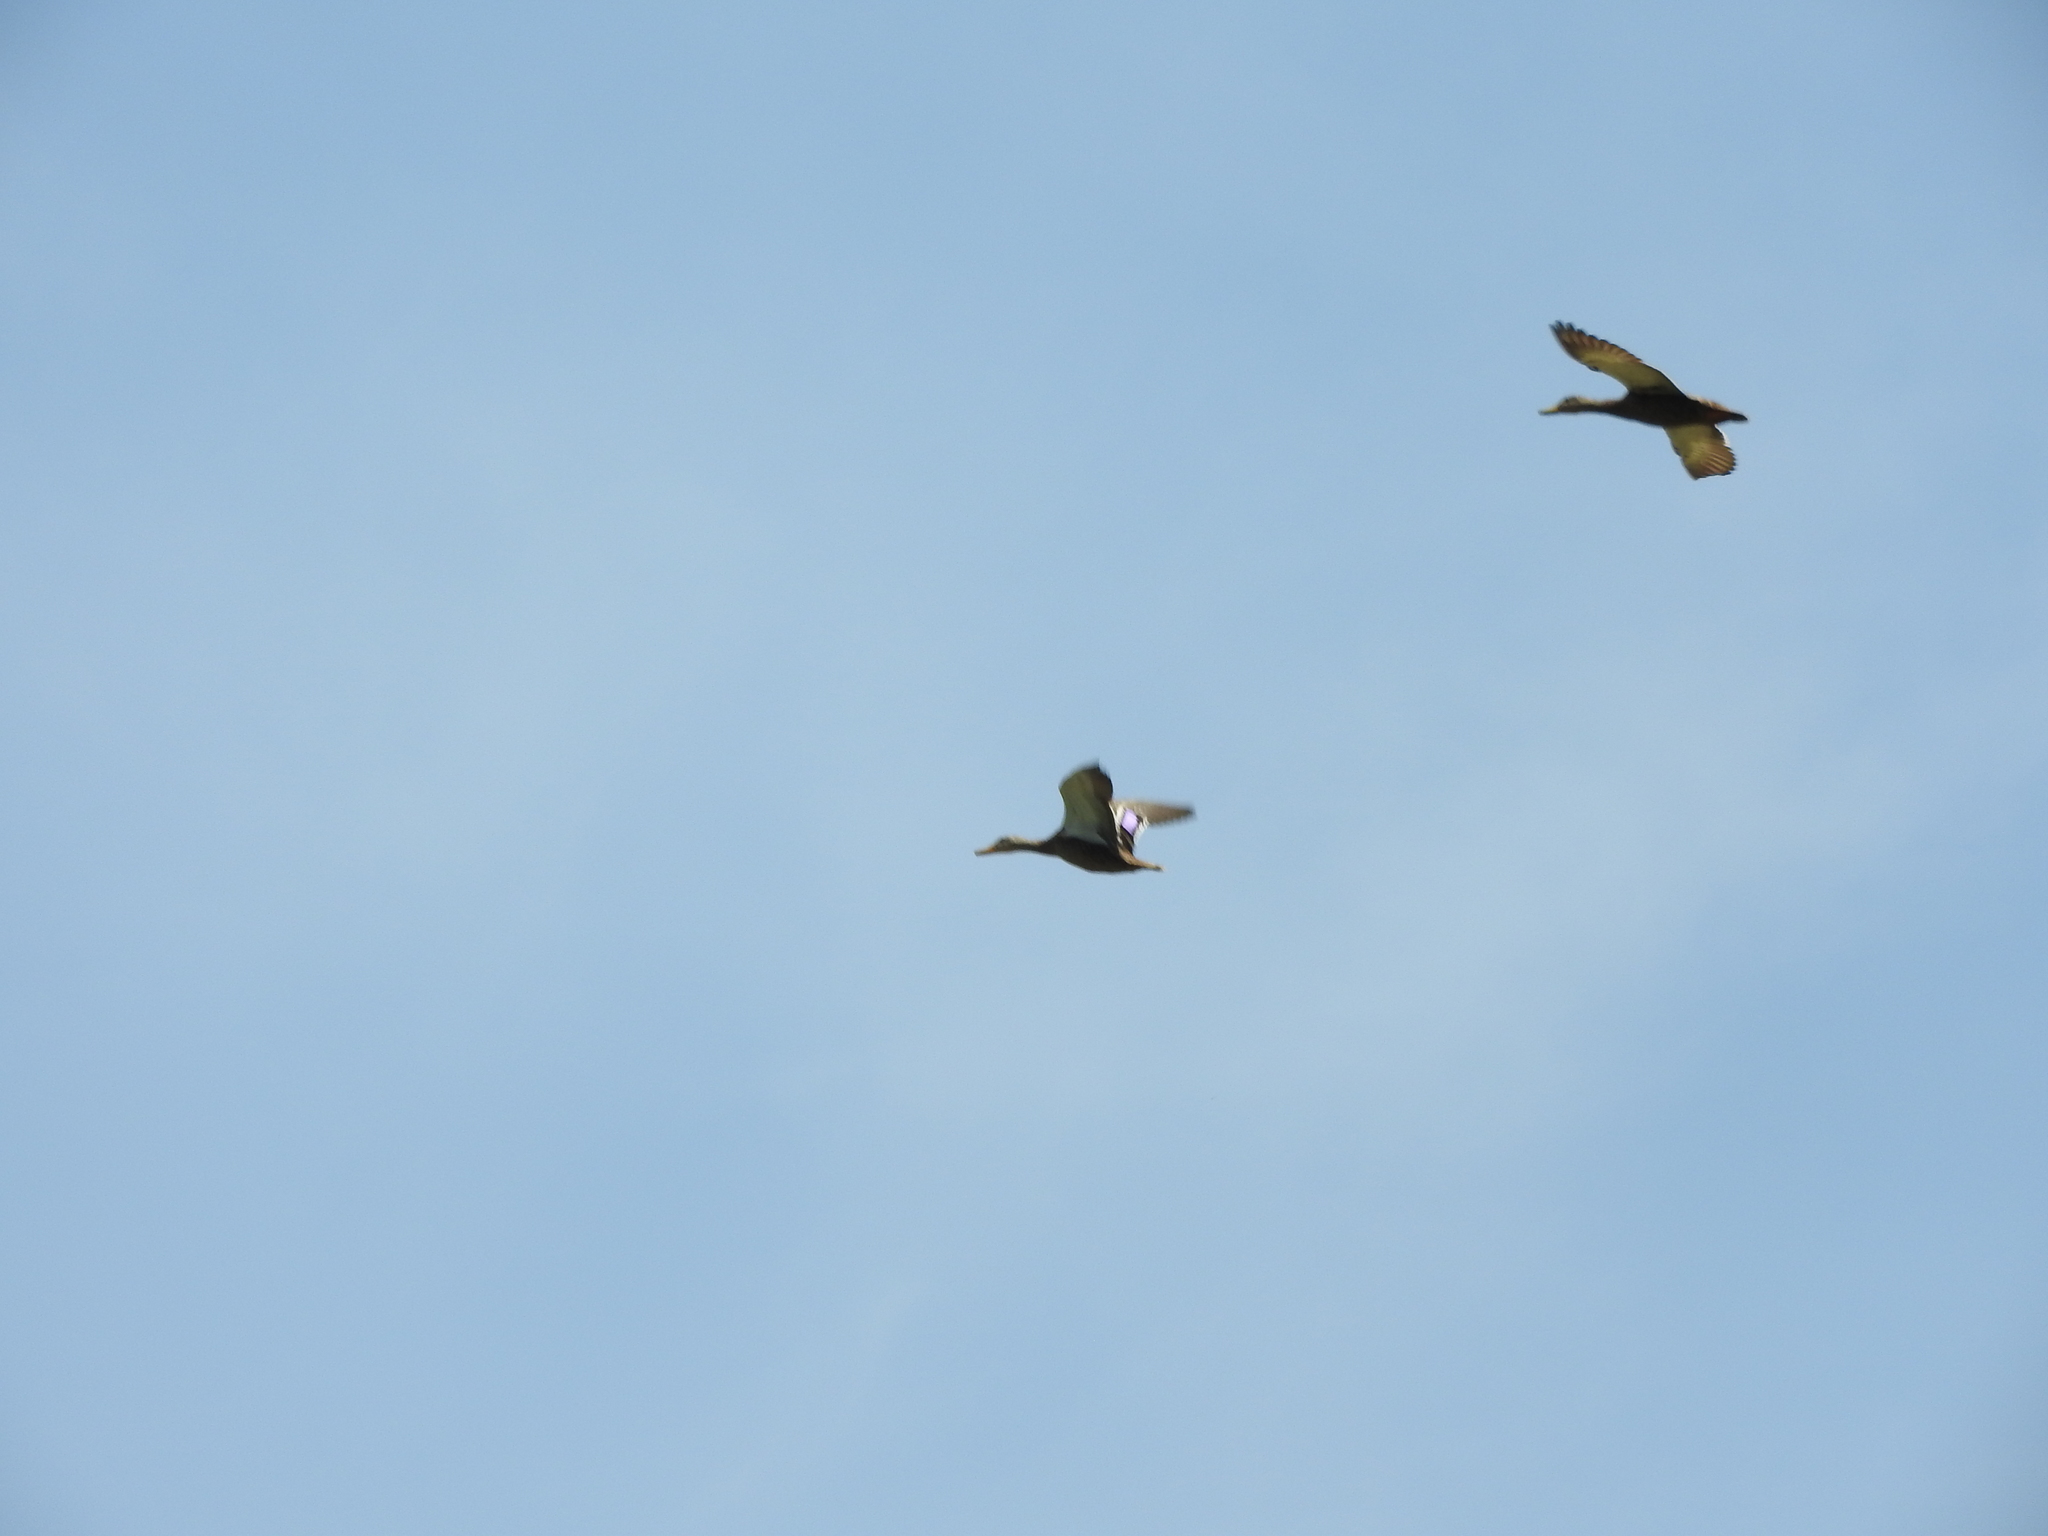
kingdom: Animalia
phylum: Chordata
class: Aves
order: Anseriformes
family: Anatidae
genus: Anas
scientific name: Anas diazi
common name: Mexican duck
